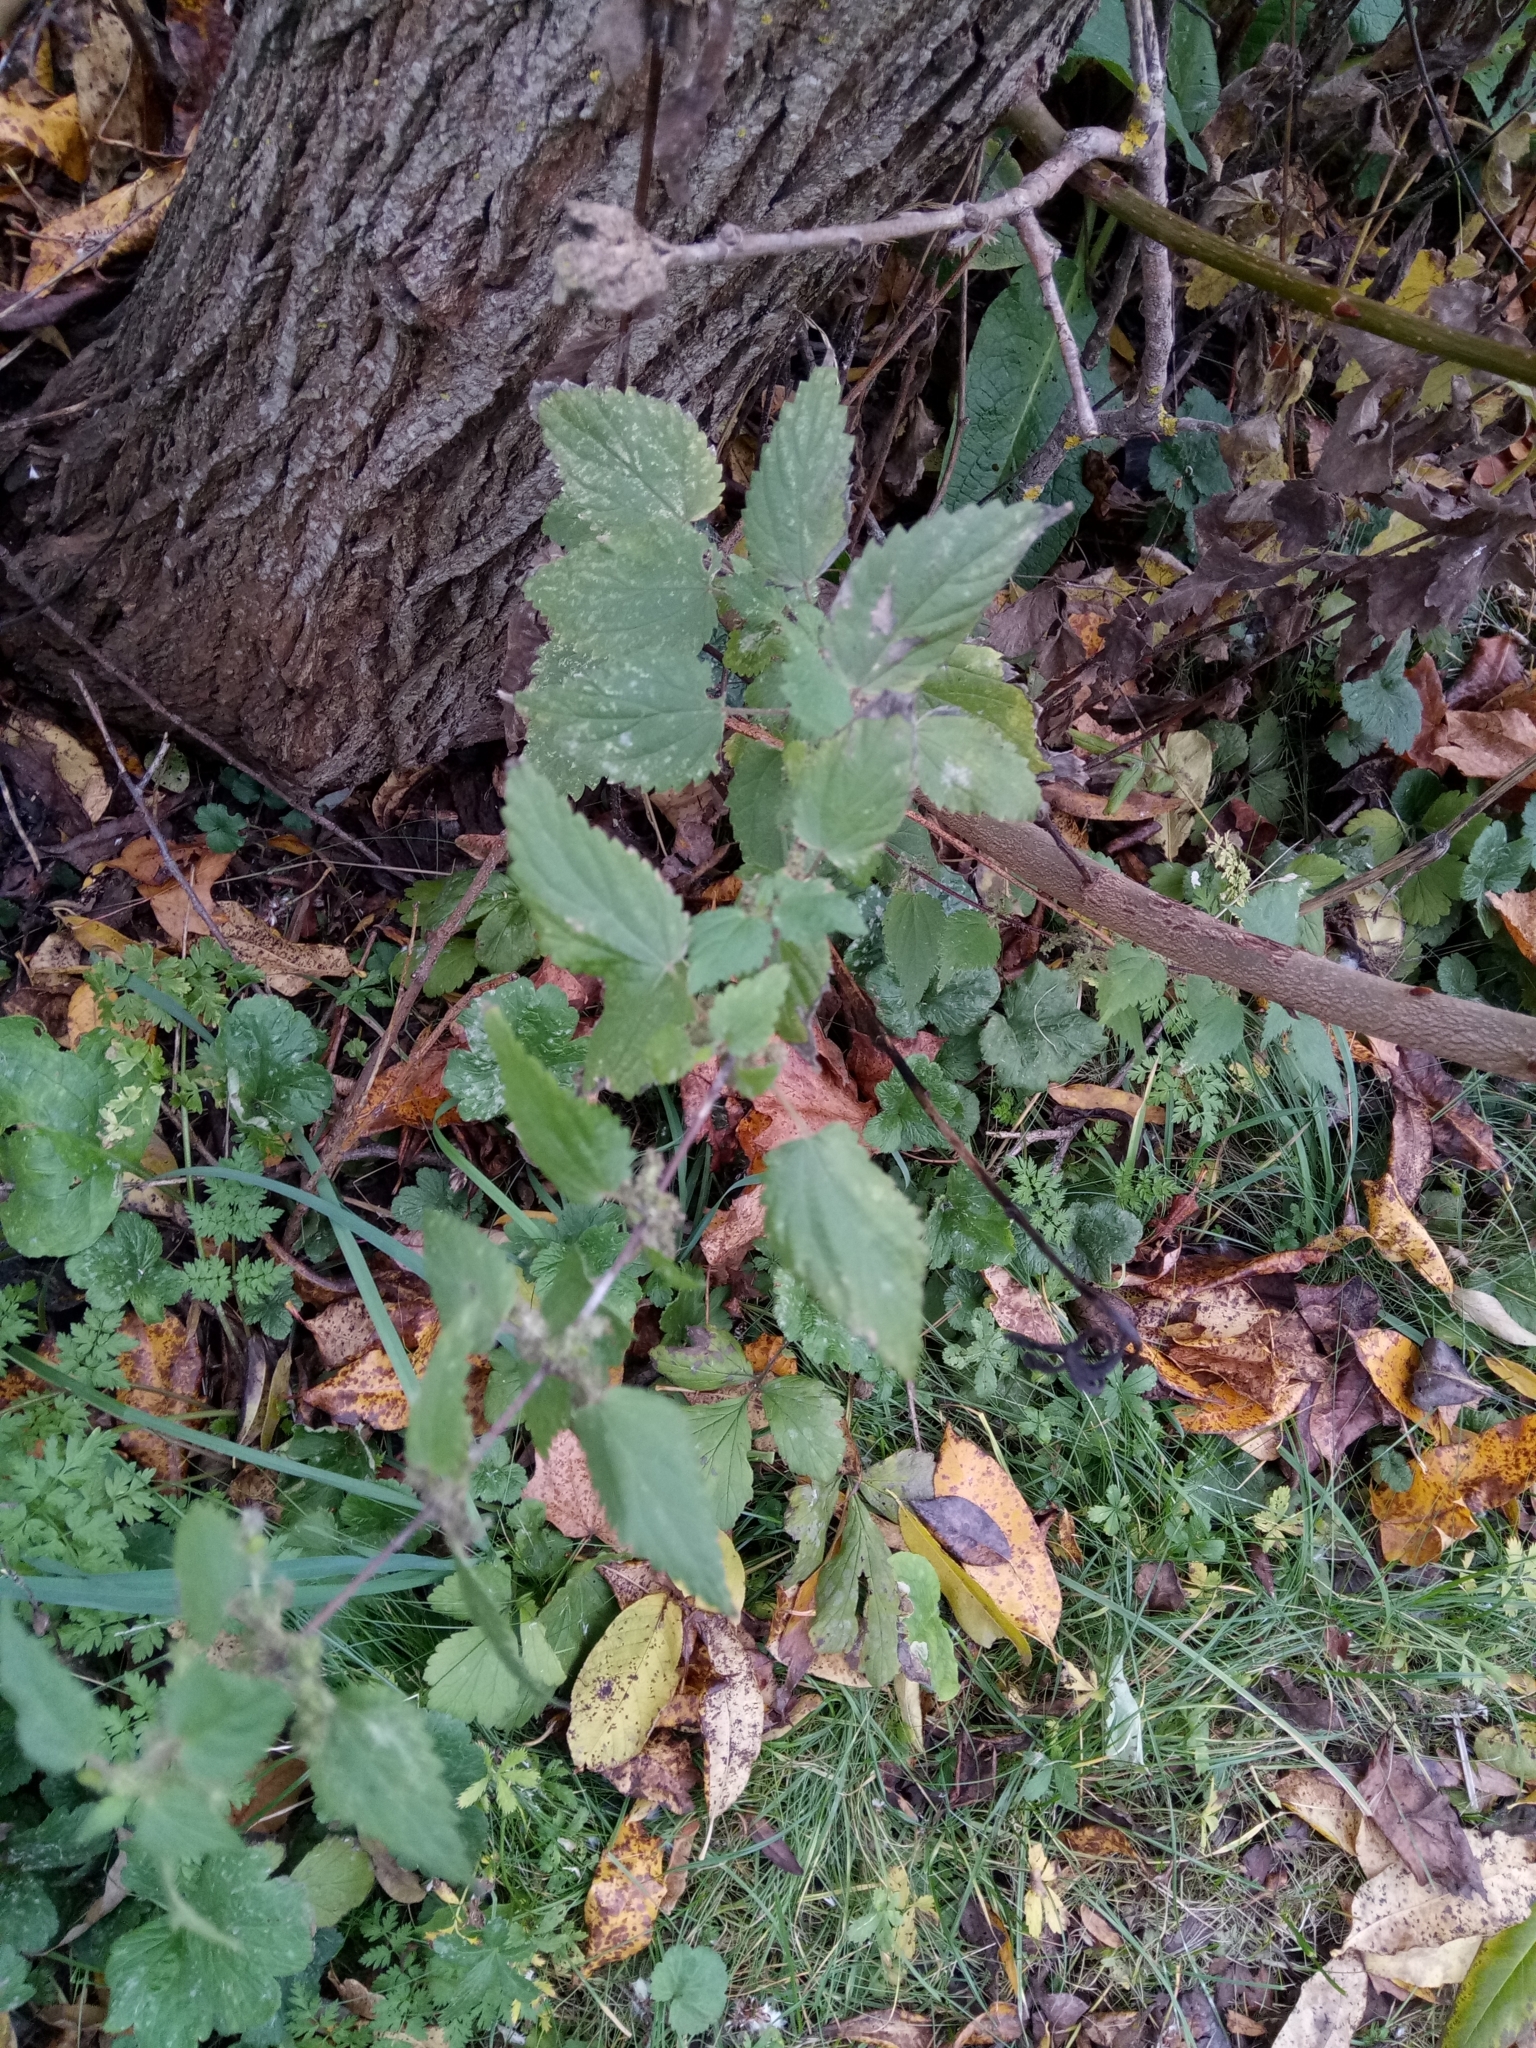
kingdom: Plantae
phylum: Tracheophyta
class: Magnoliopsida
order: Rosales
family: Urticaceae
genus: Urtica
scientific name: Urtica dioica
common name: Common nettle
